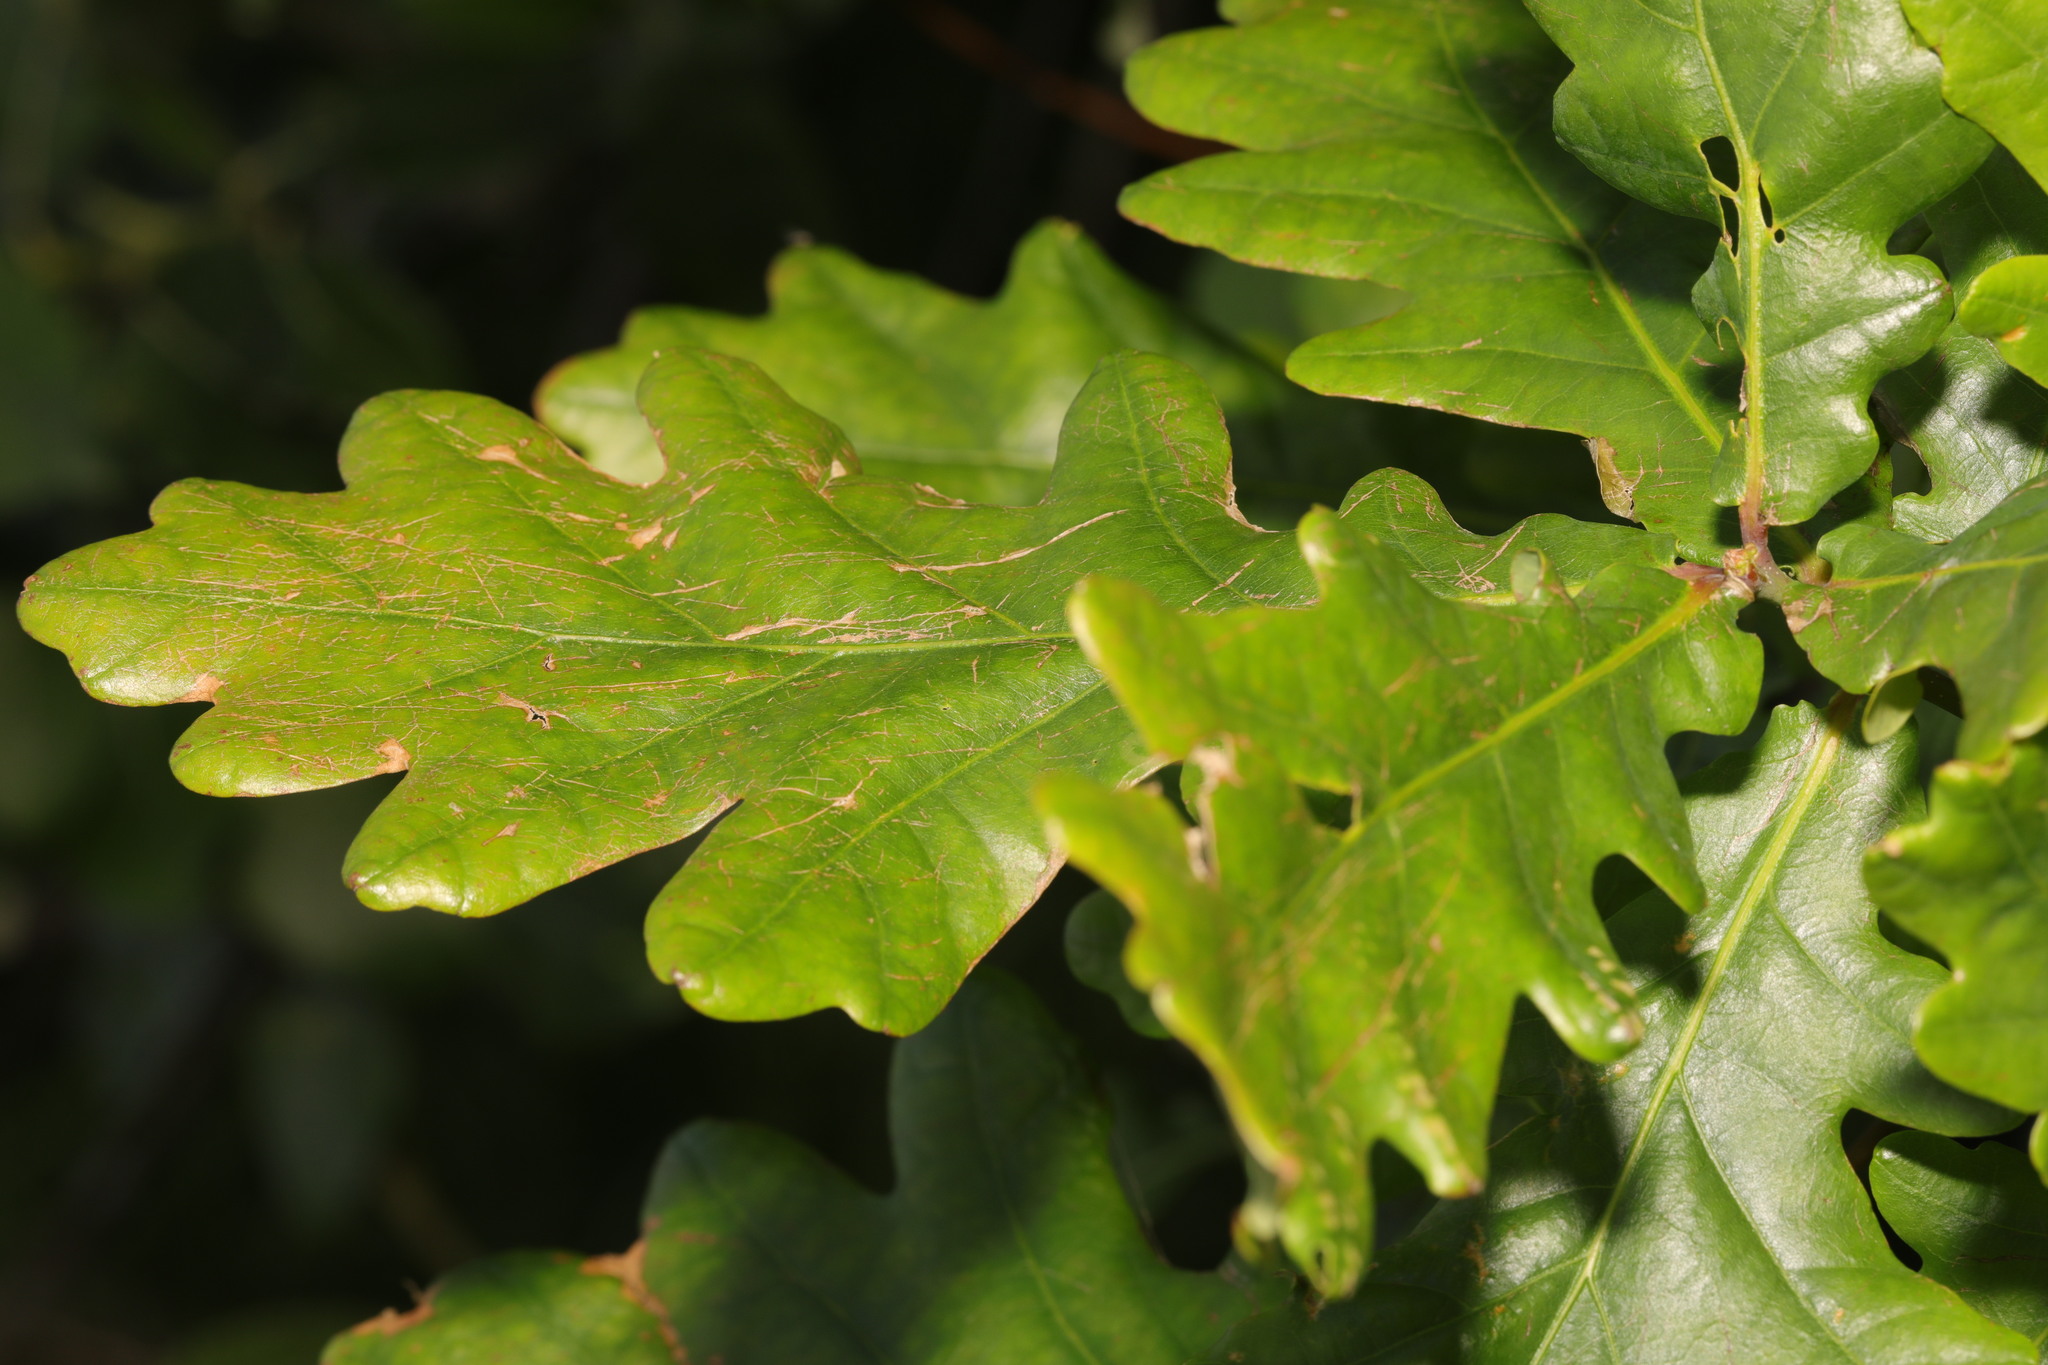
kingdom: Plantae
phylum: Tracheophyta
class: Magnoliopsida
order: Fagales
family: Fagaceae
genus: Quercus
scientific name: Quercus robur
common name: Pedunculate oak
